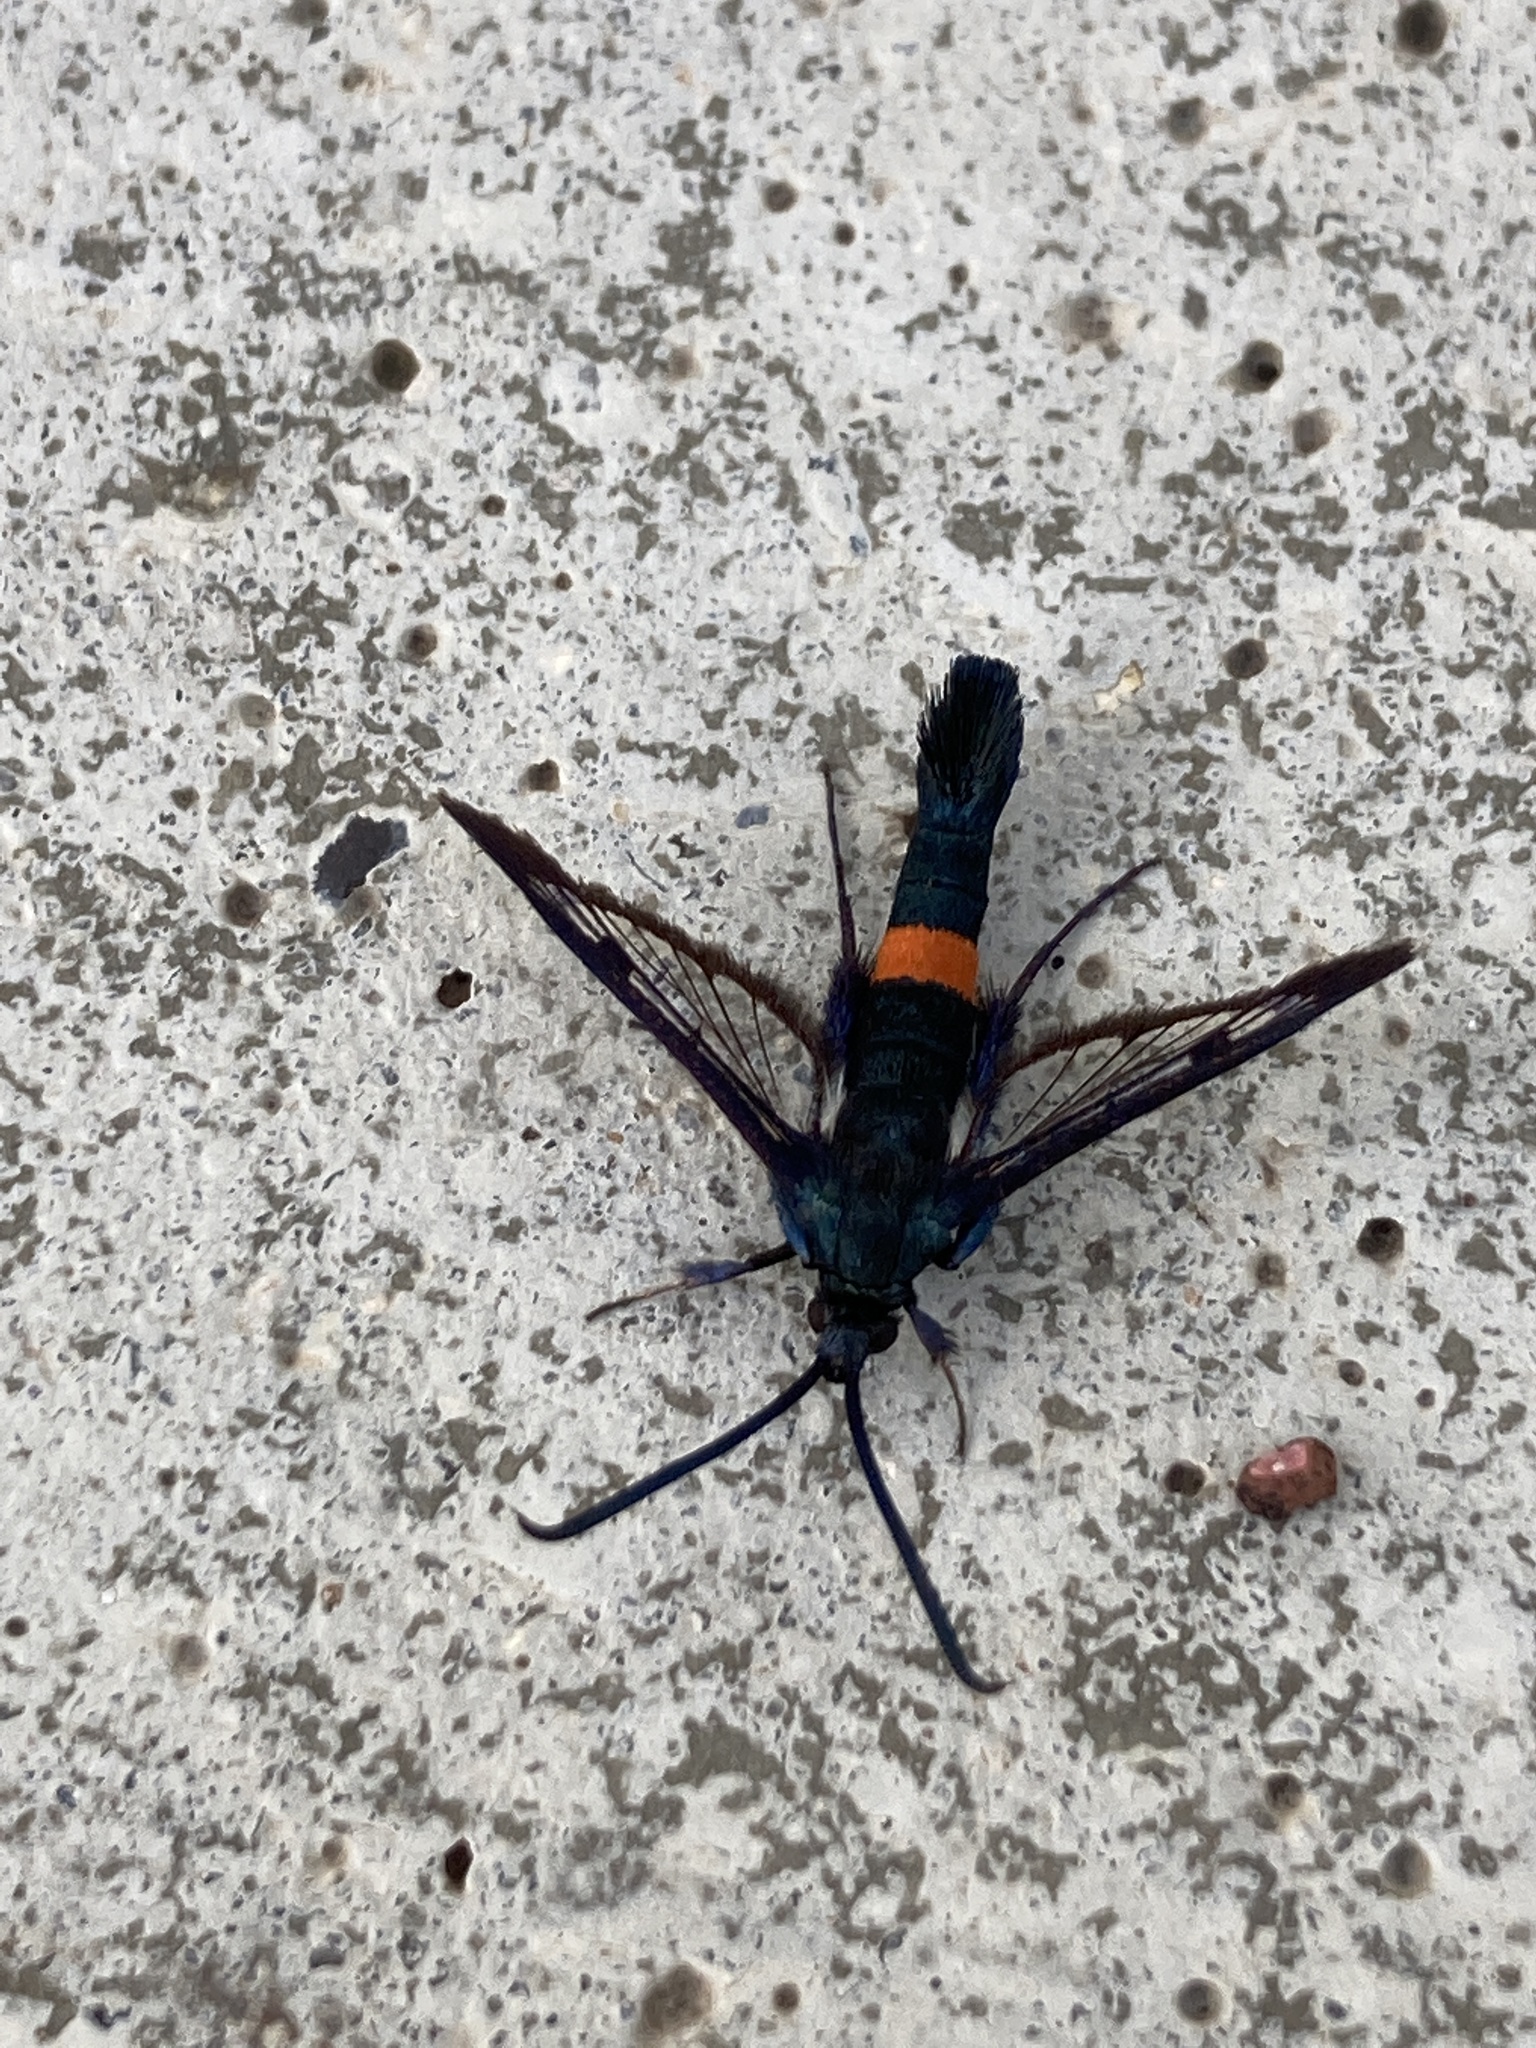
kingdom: Animalia
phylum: Arthropoda
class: Insecta
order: Lepidoptera
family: Sesiidae
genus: Synanthedon
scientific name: Synanthedon myopaeformis
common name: Red-belted clearwing
